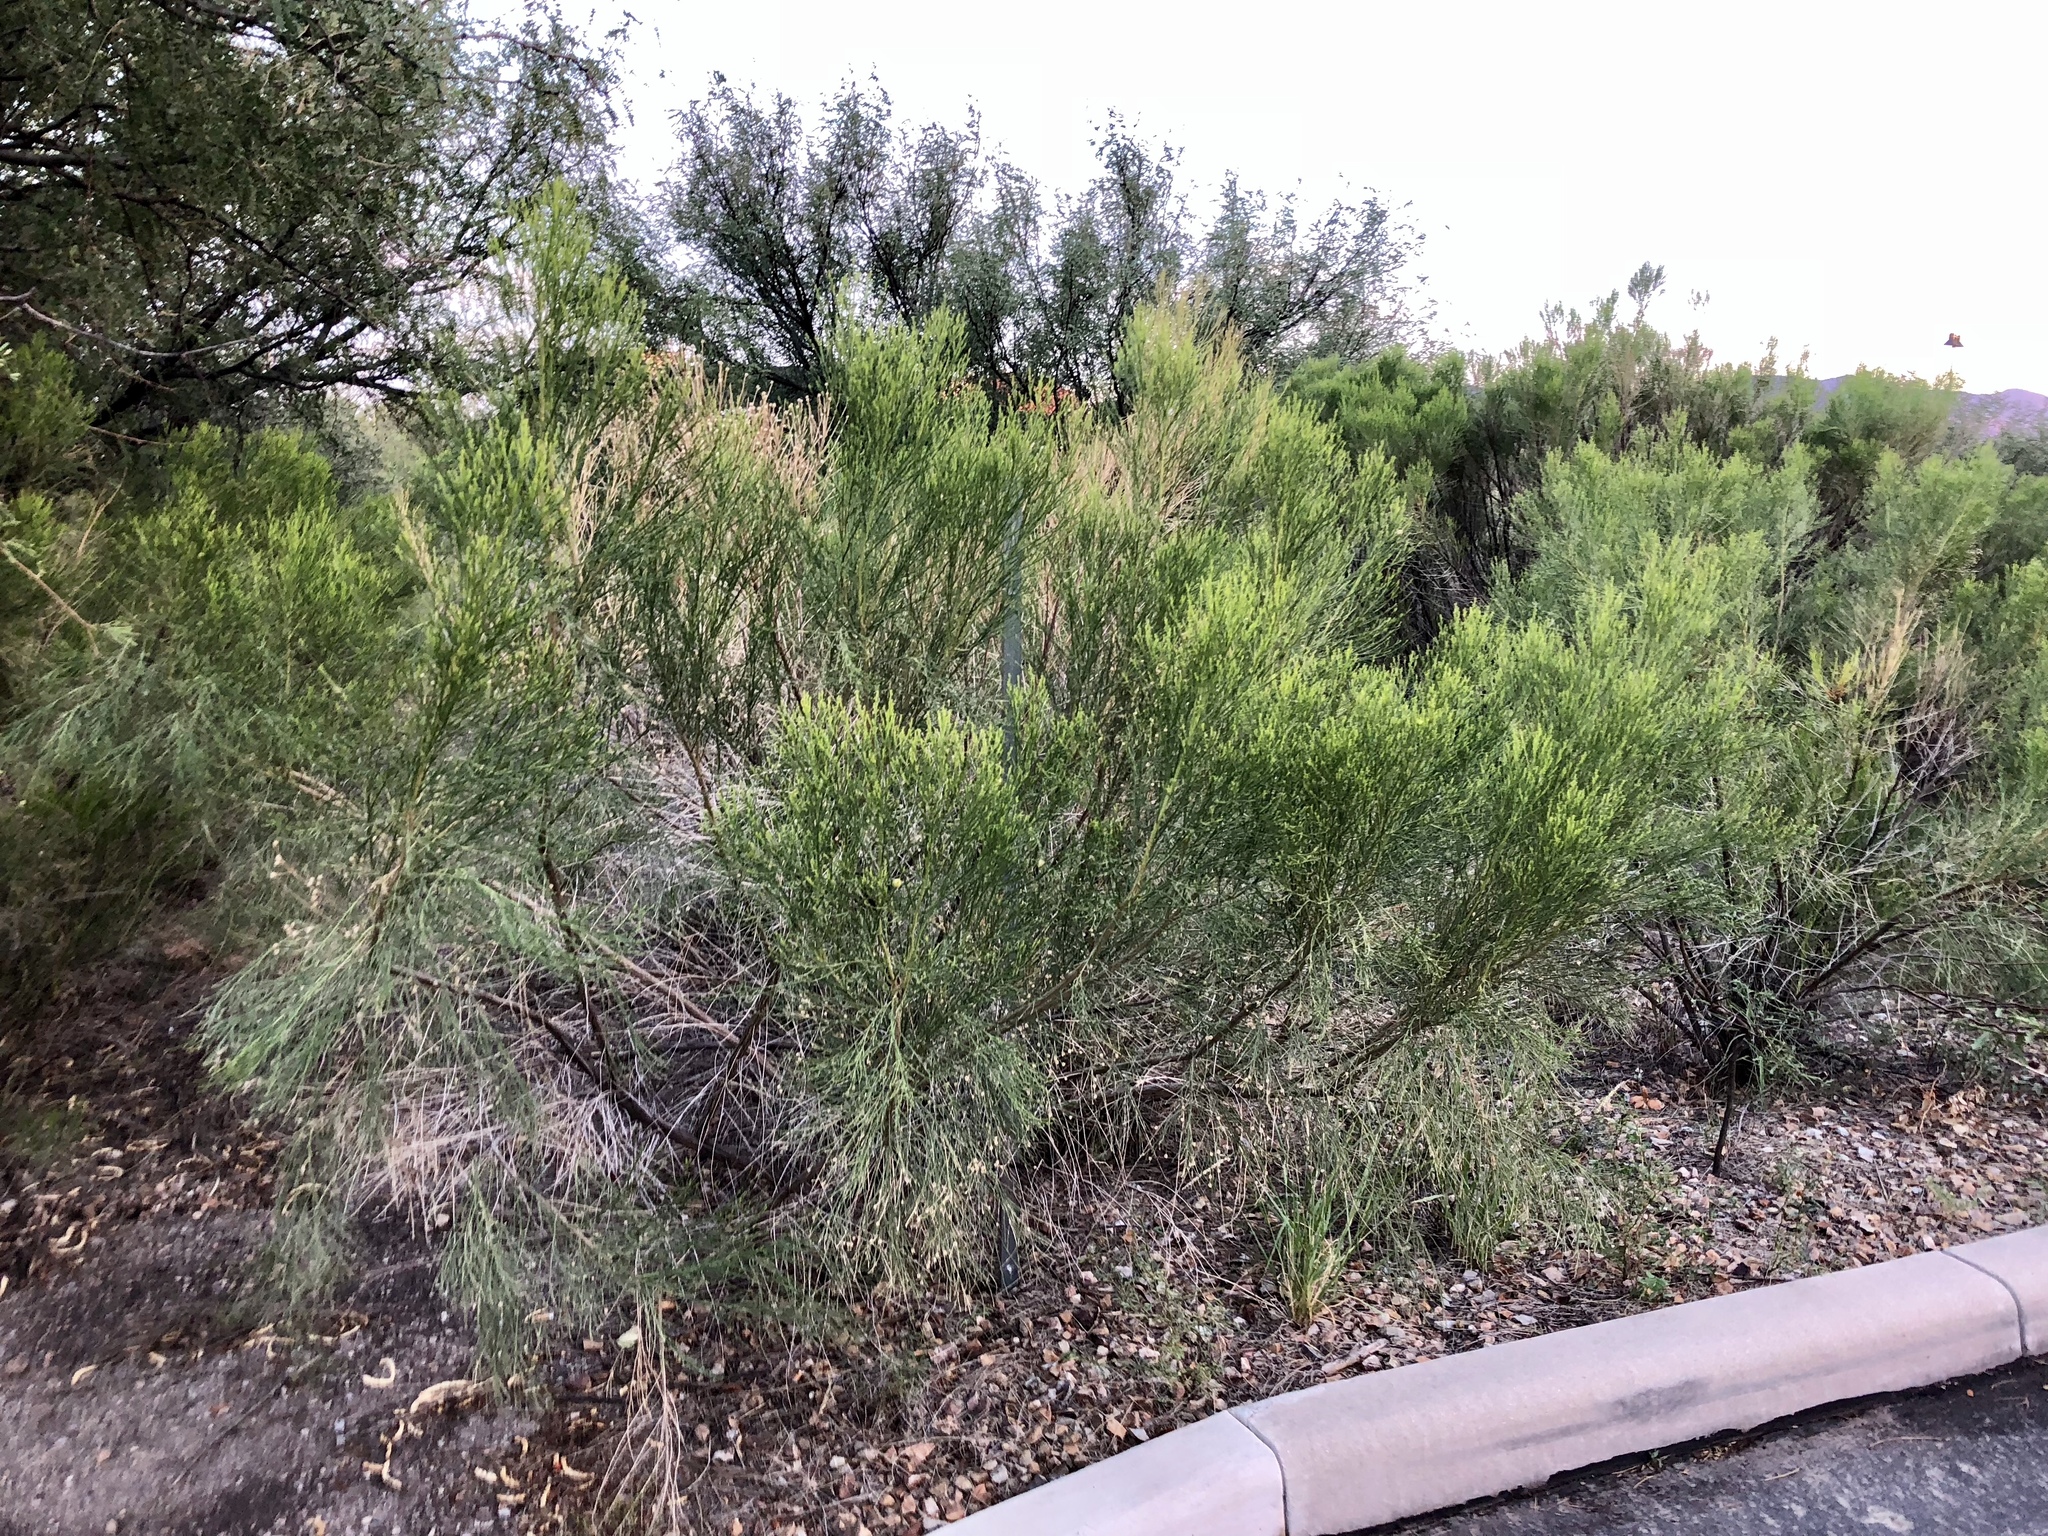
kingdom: Plantae
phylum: Tracheophyta
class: Magnoliopsida
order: Asterales
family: Asteraceae
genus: Baccharis
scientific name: Baccharis sarothroides
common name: Desert-broom
